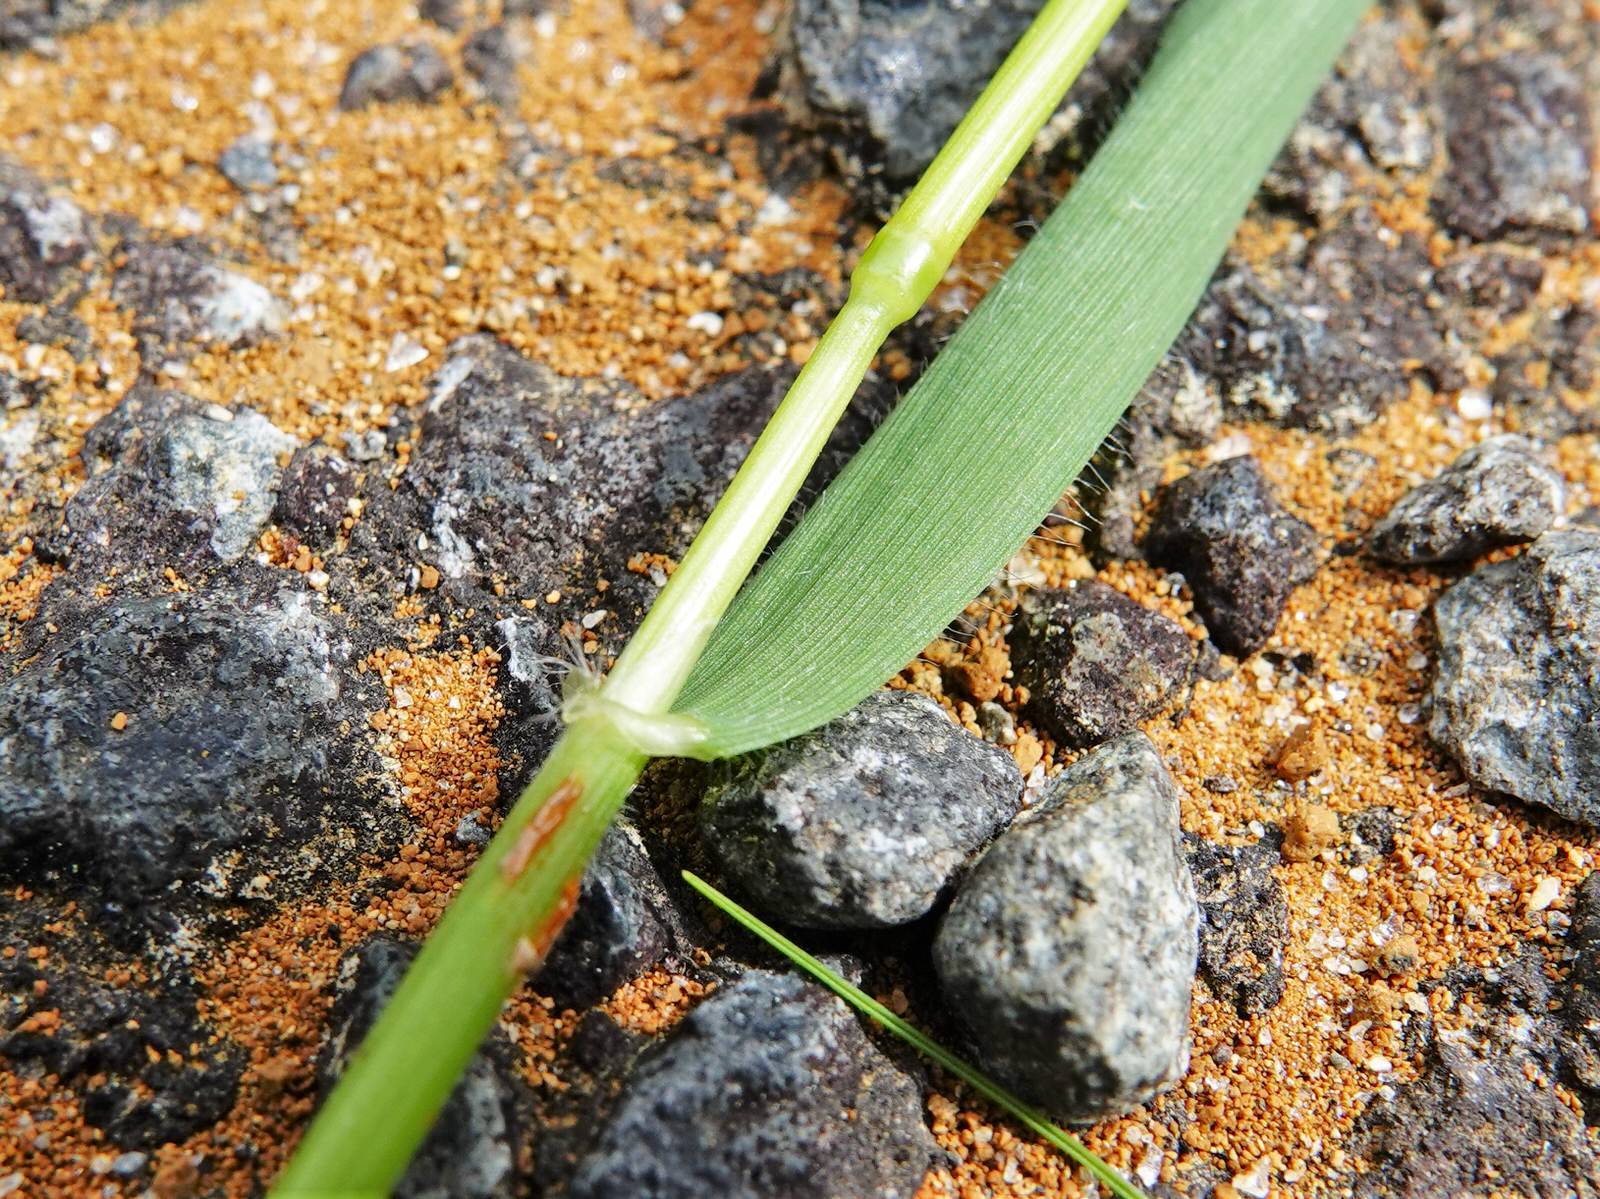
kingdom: Plantae
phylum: Tracheophyta
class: Liliopsida
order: Poales
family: Poaceae
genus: Anthoxanthum
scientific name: Anthoxanthum odoratum
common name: Sweet vernalgrass
